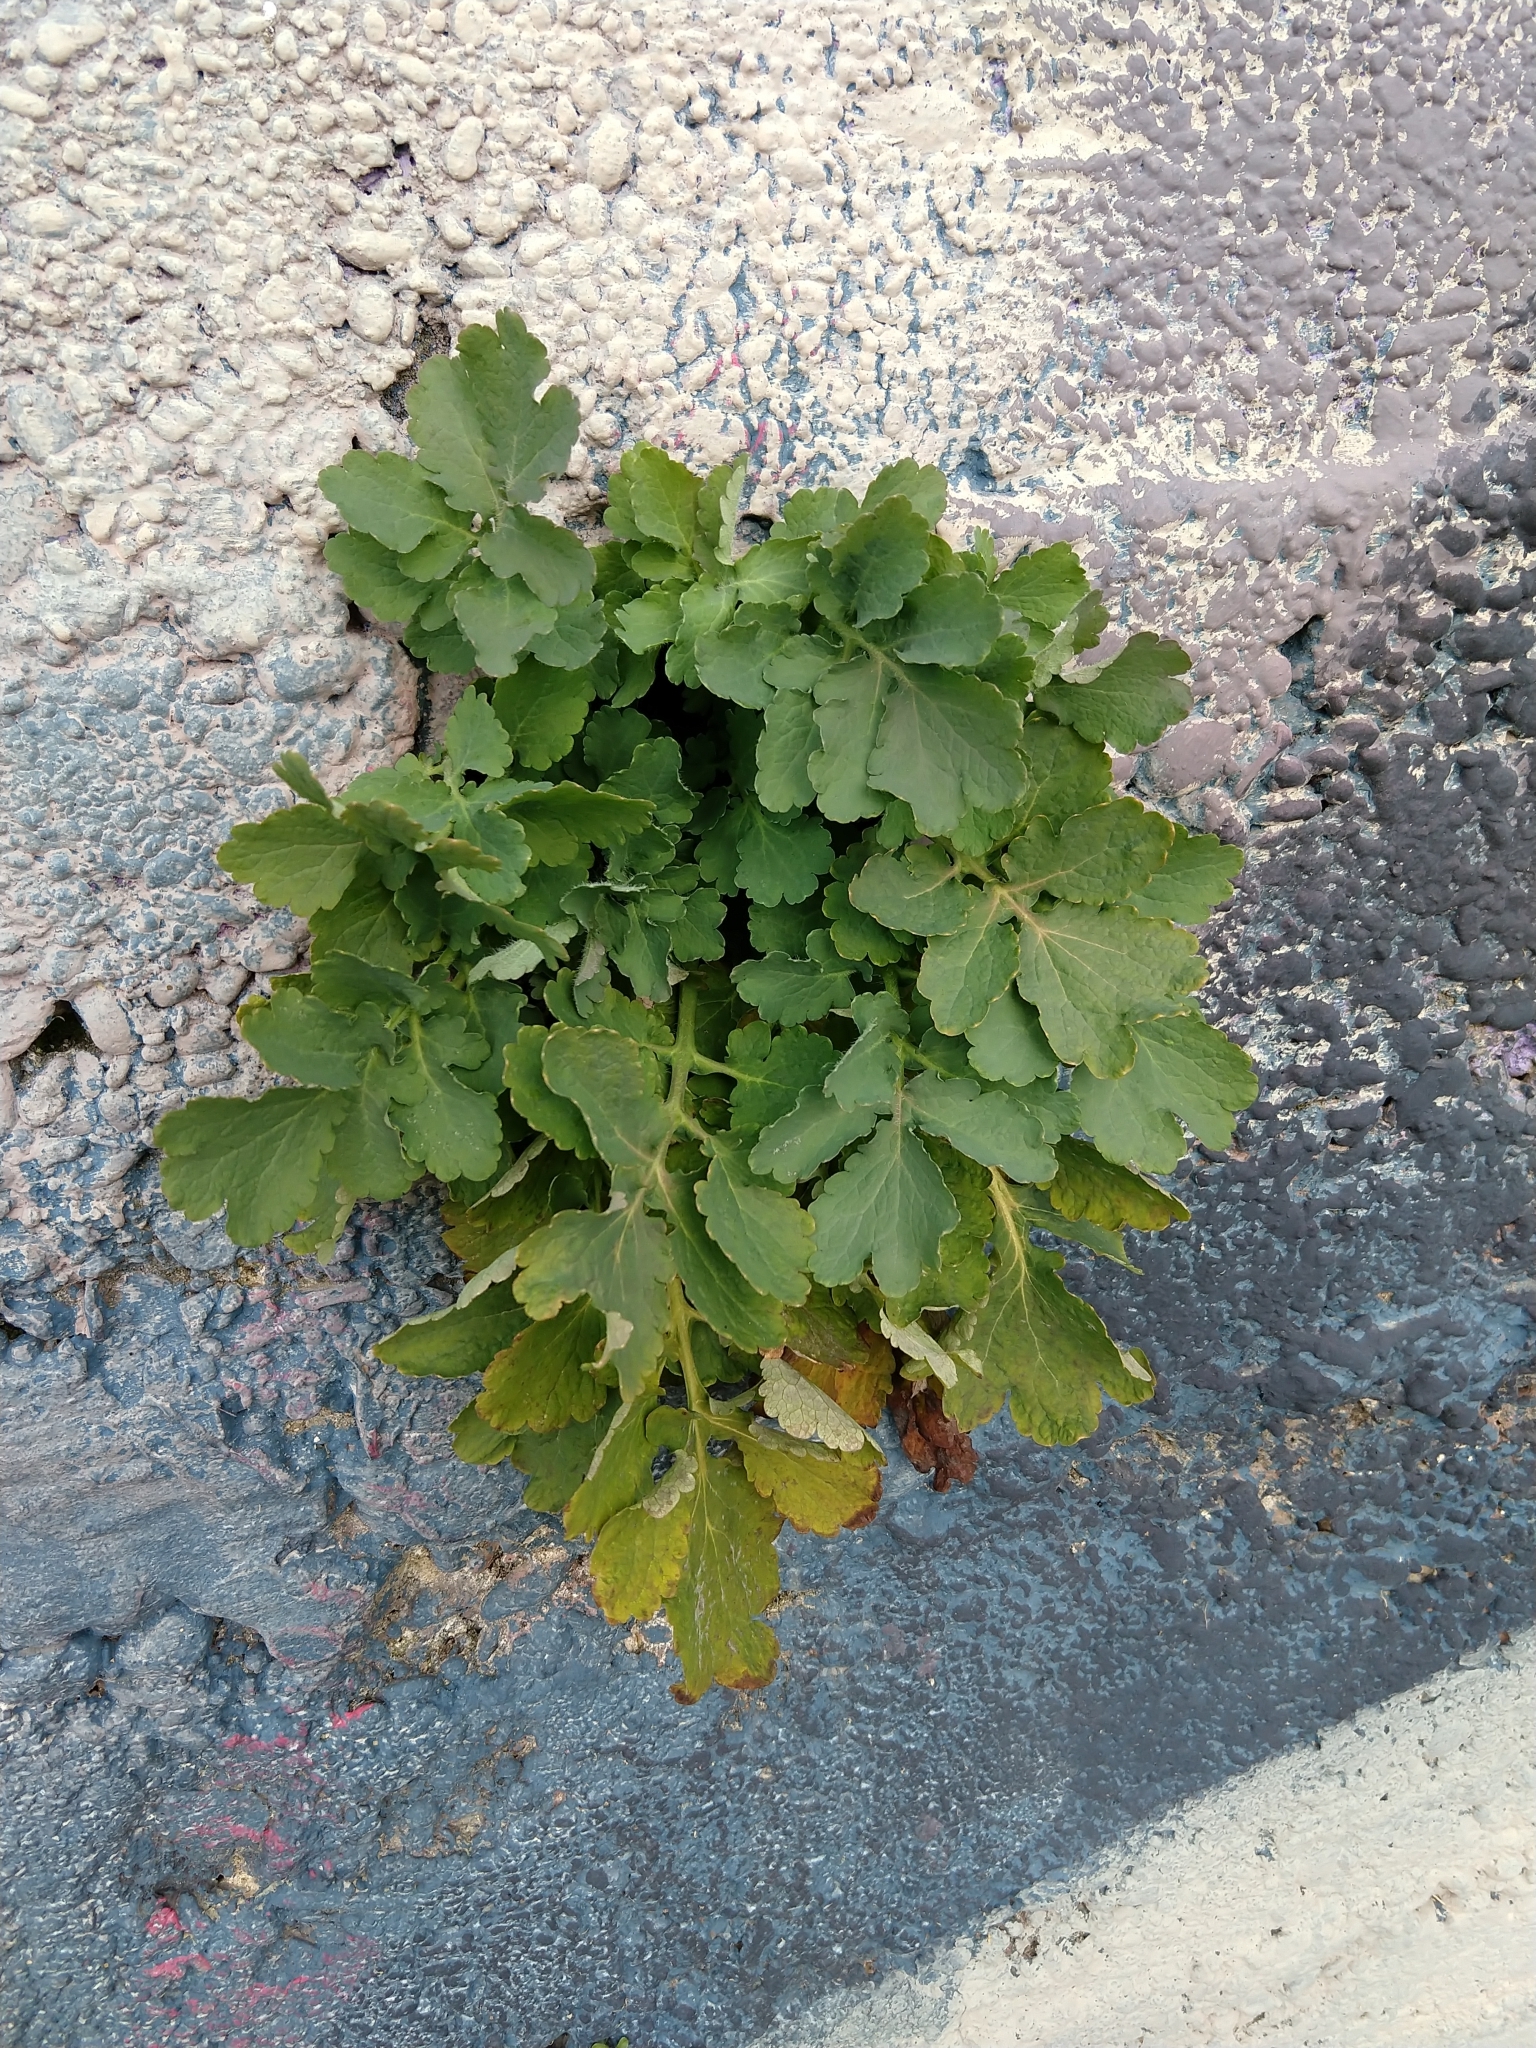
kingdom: Plantae
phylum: Tracheophyta
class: Magnoliopsida
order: Ranunculales
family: Papaveraceae
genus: Chelidonium
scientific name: Chelidonium majus
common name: Greater celandine
